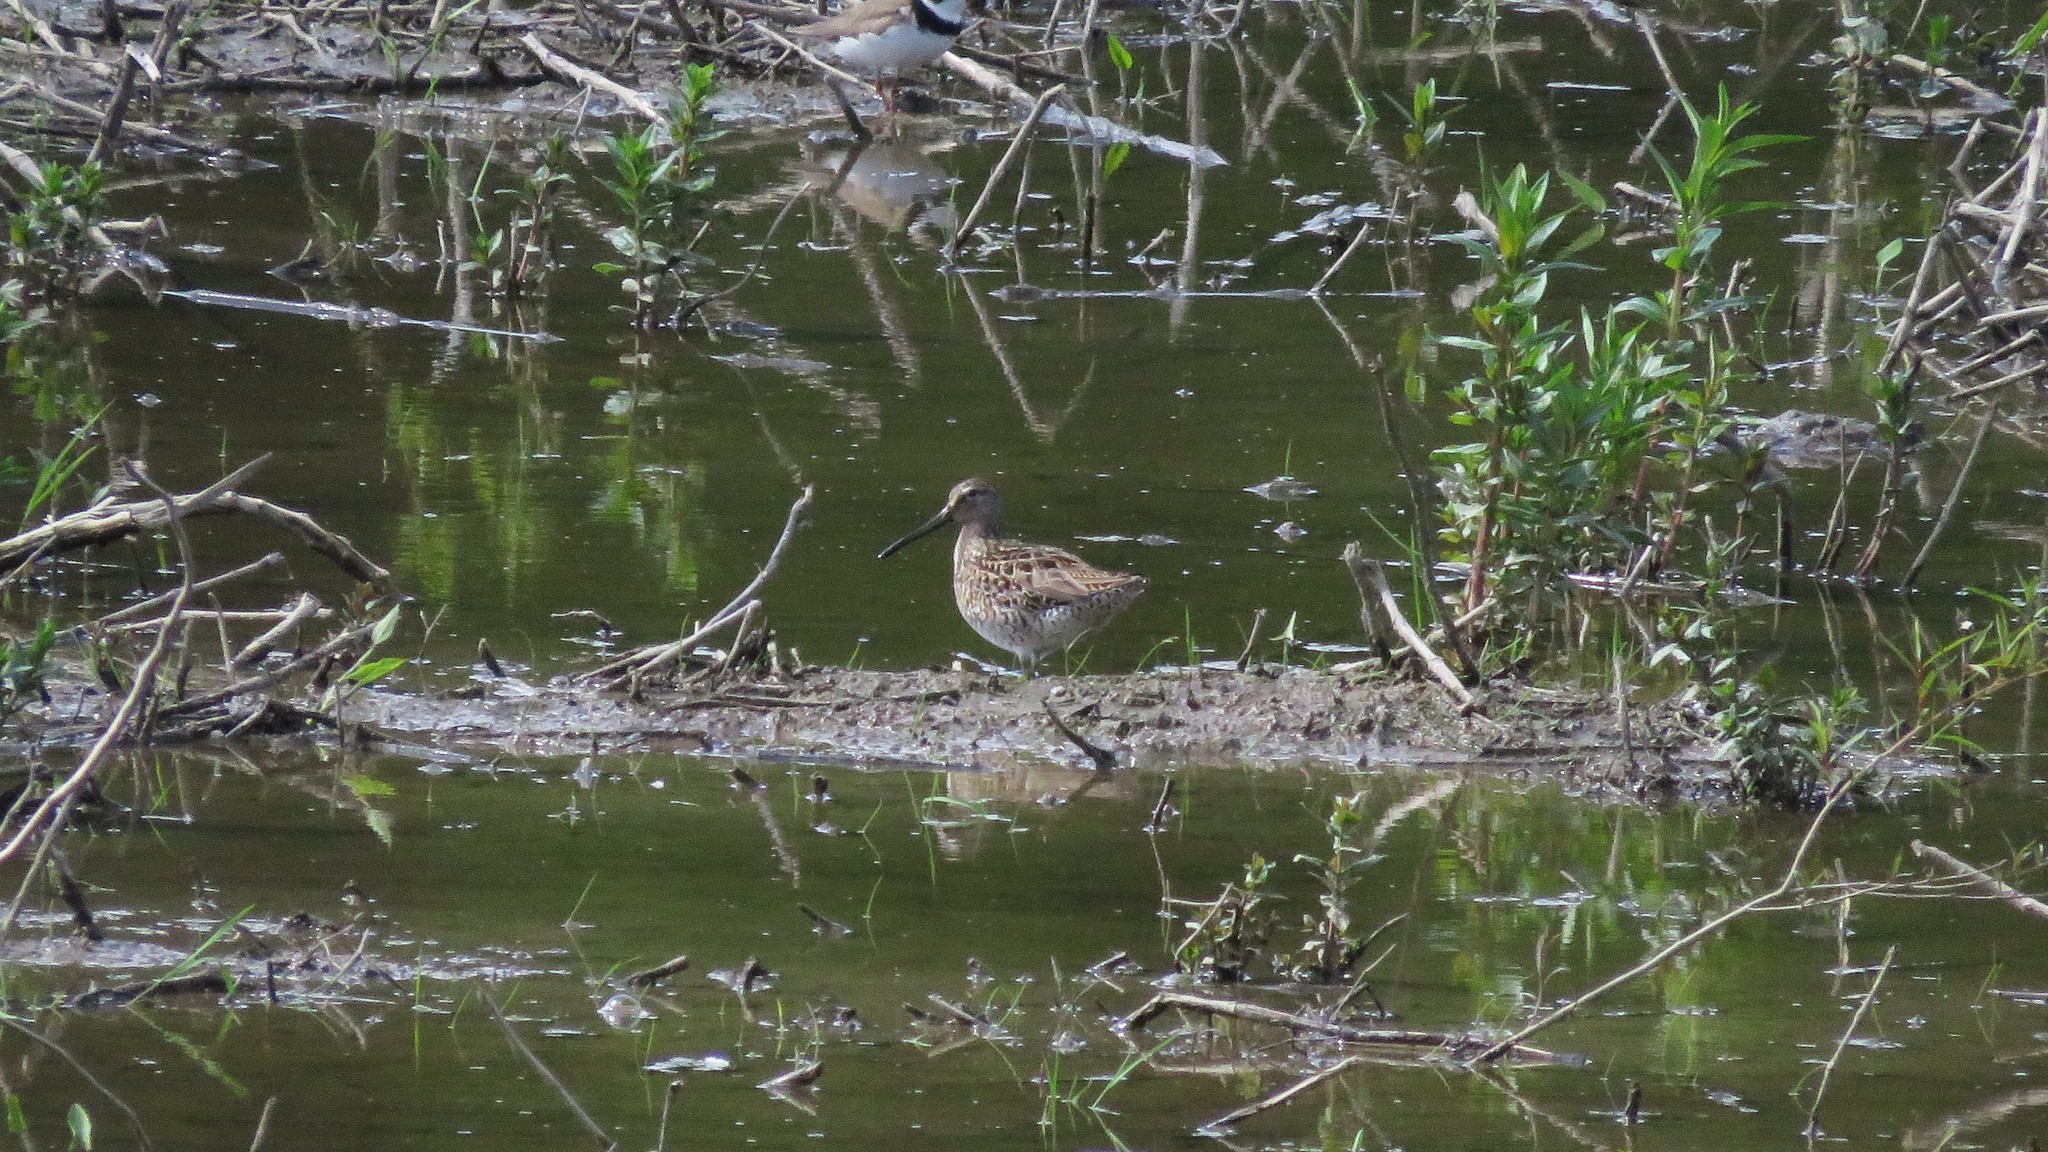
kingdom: Animalia
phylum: Chordata
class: Aves
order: Charadriiformes
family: Scolopacidae
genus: Limnodromus
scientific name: Limnodromus griseus
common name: Short-billed dowitcher
